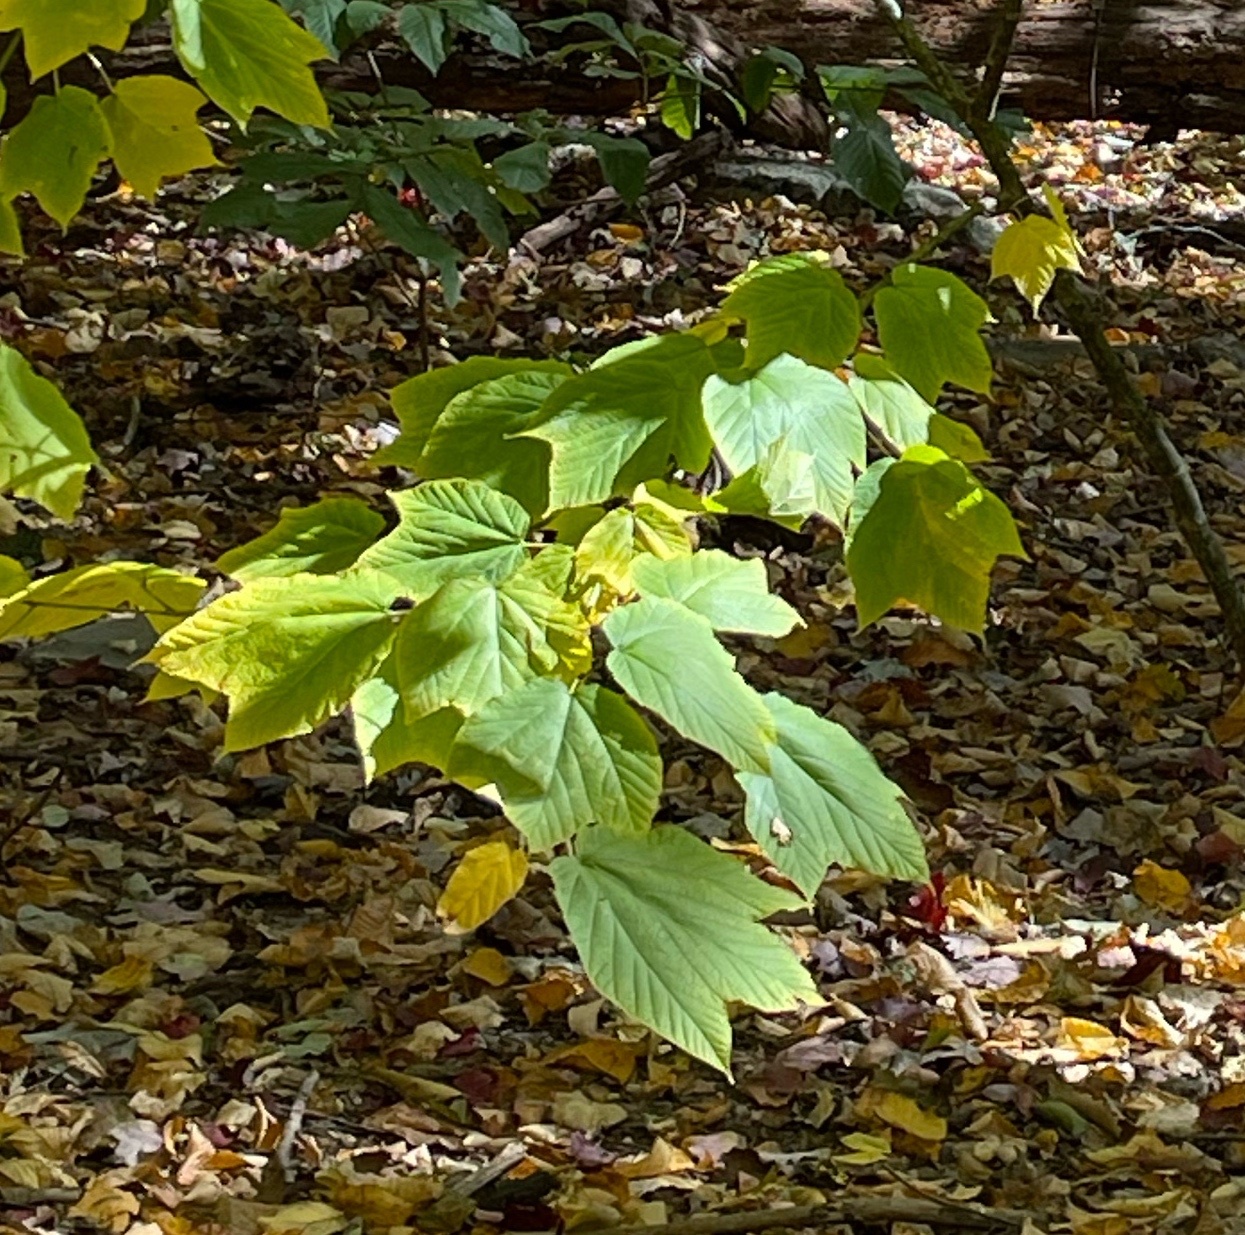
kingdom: Plantae
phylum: Tracheophyta
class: Magnoliopsida
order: Sapindales
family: Sapindaceae
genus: Acer
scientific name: Acer pensylvanicum
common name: Moosewood
